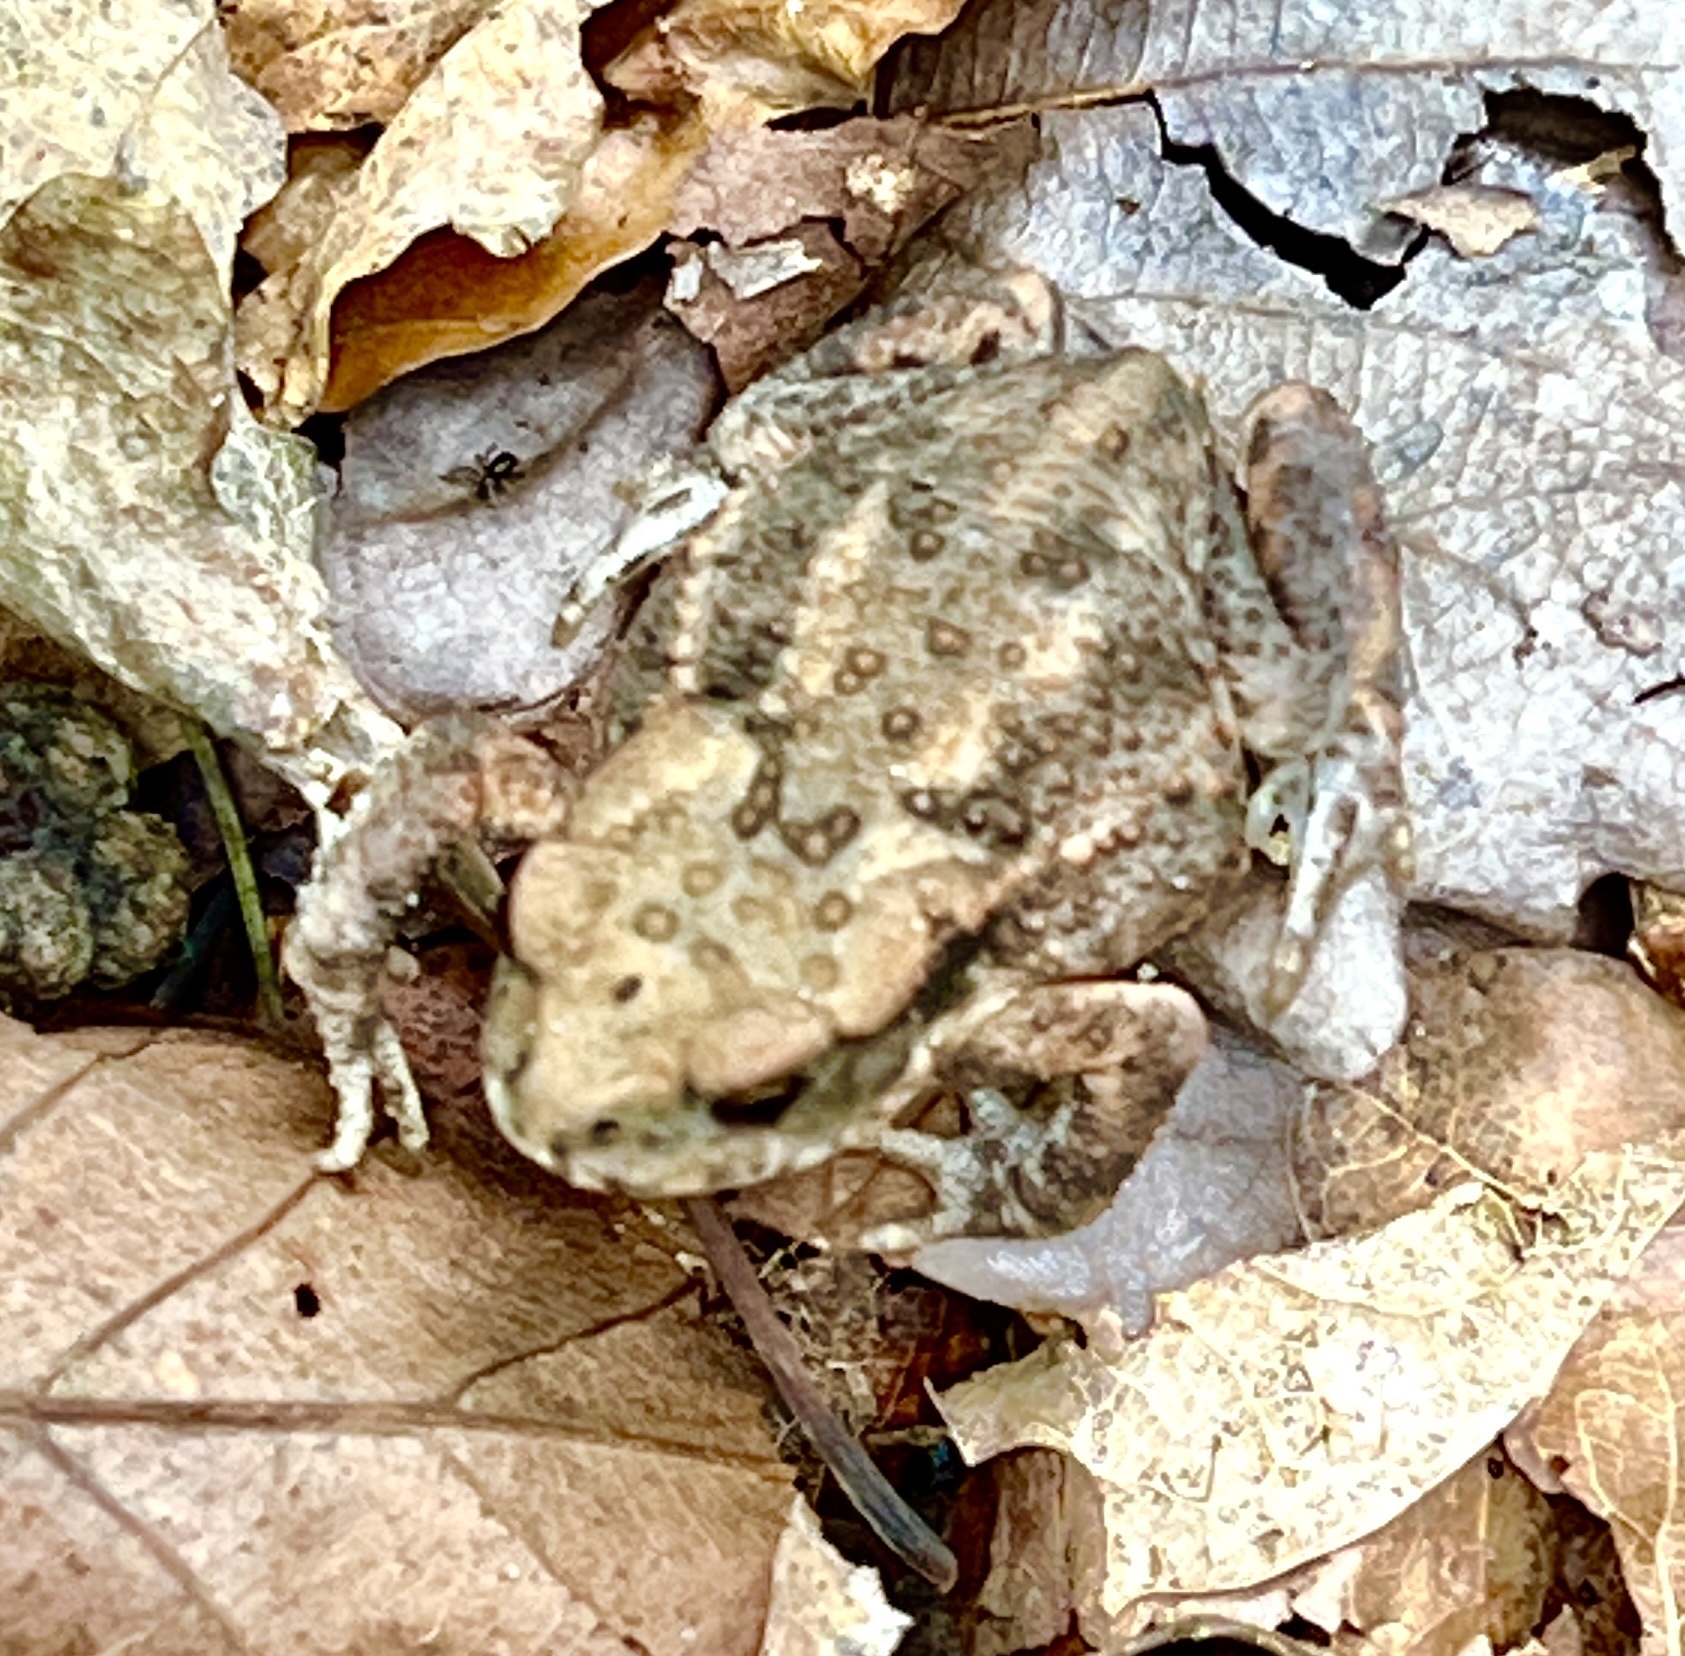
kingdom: Animalia
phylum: Chordata
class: Amphibia
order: Anura
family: Bufonidae
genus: Bufo
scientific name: Bufo bufo
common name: Common toad
